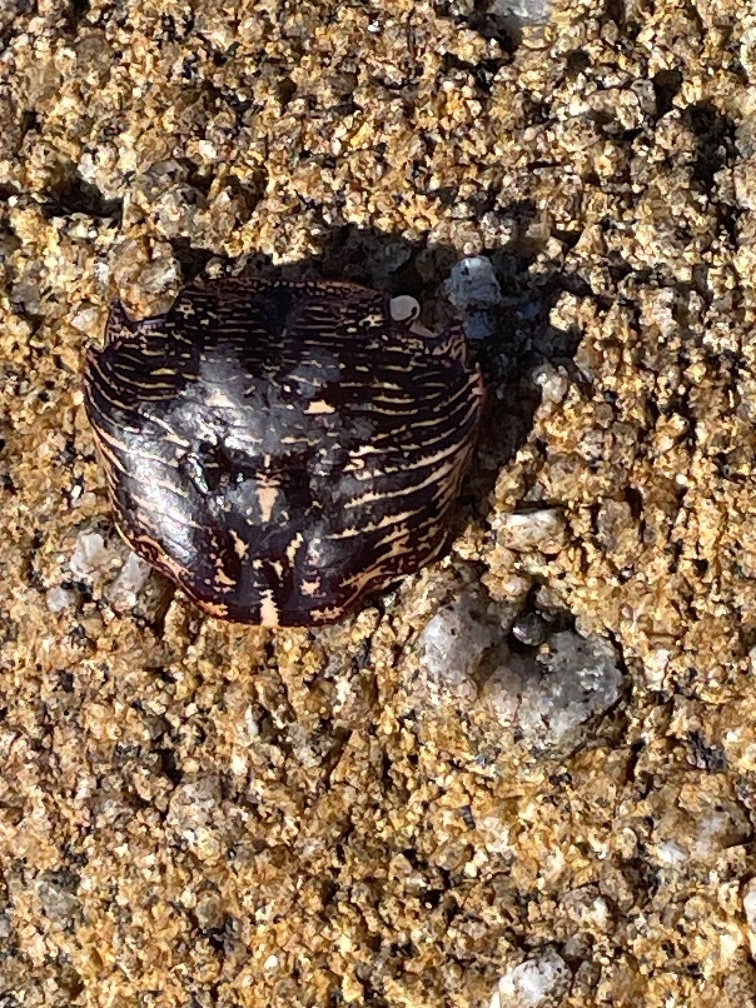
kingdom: Animalia
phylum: Arthropoda
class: Malacostraca
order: Decapoda
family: Grapsidae
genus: Pachygrapsus
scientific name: Pachygrapsus crassipes
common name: Striped shore crab
